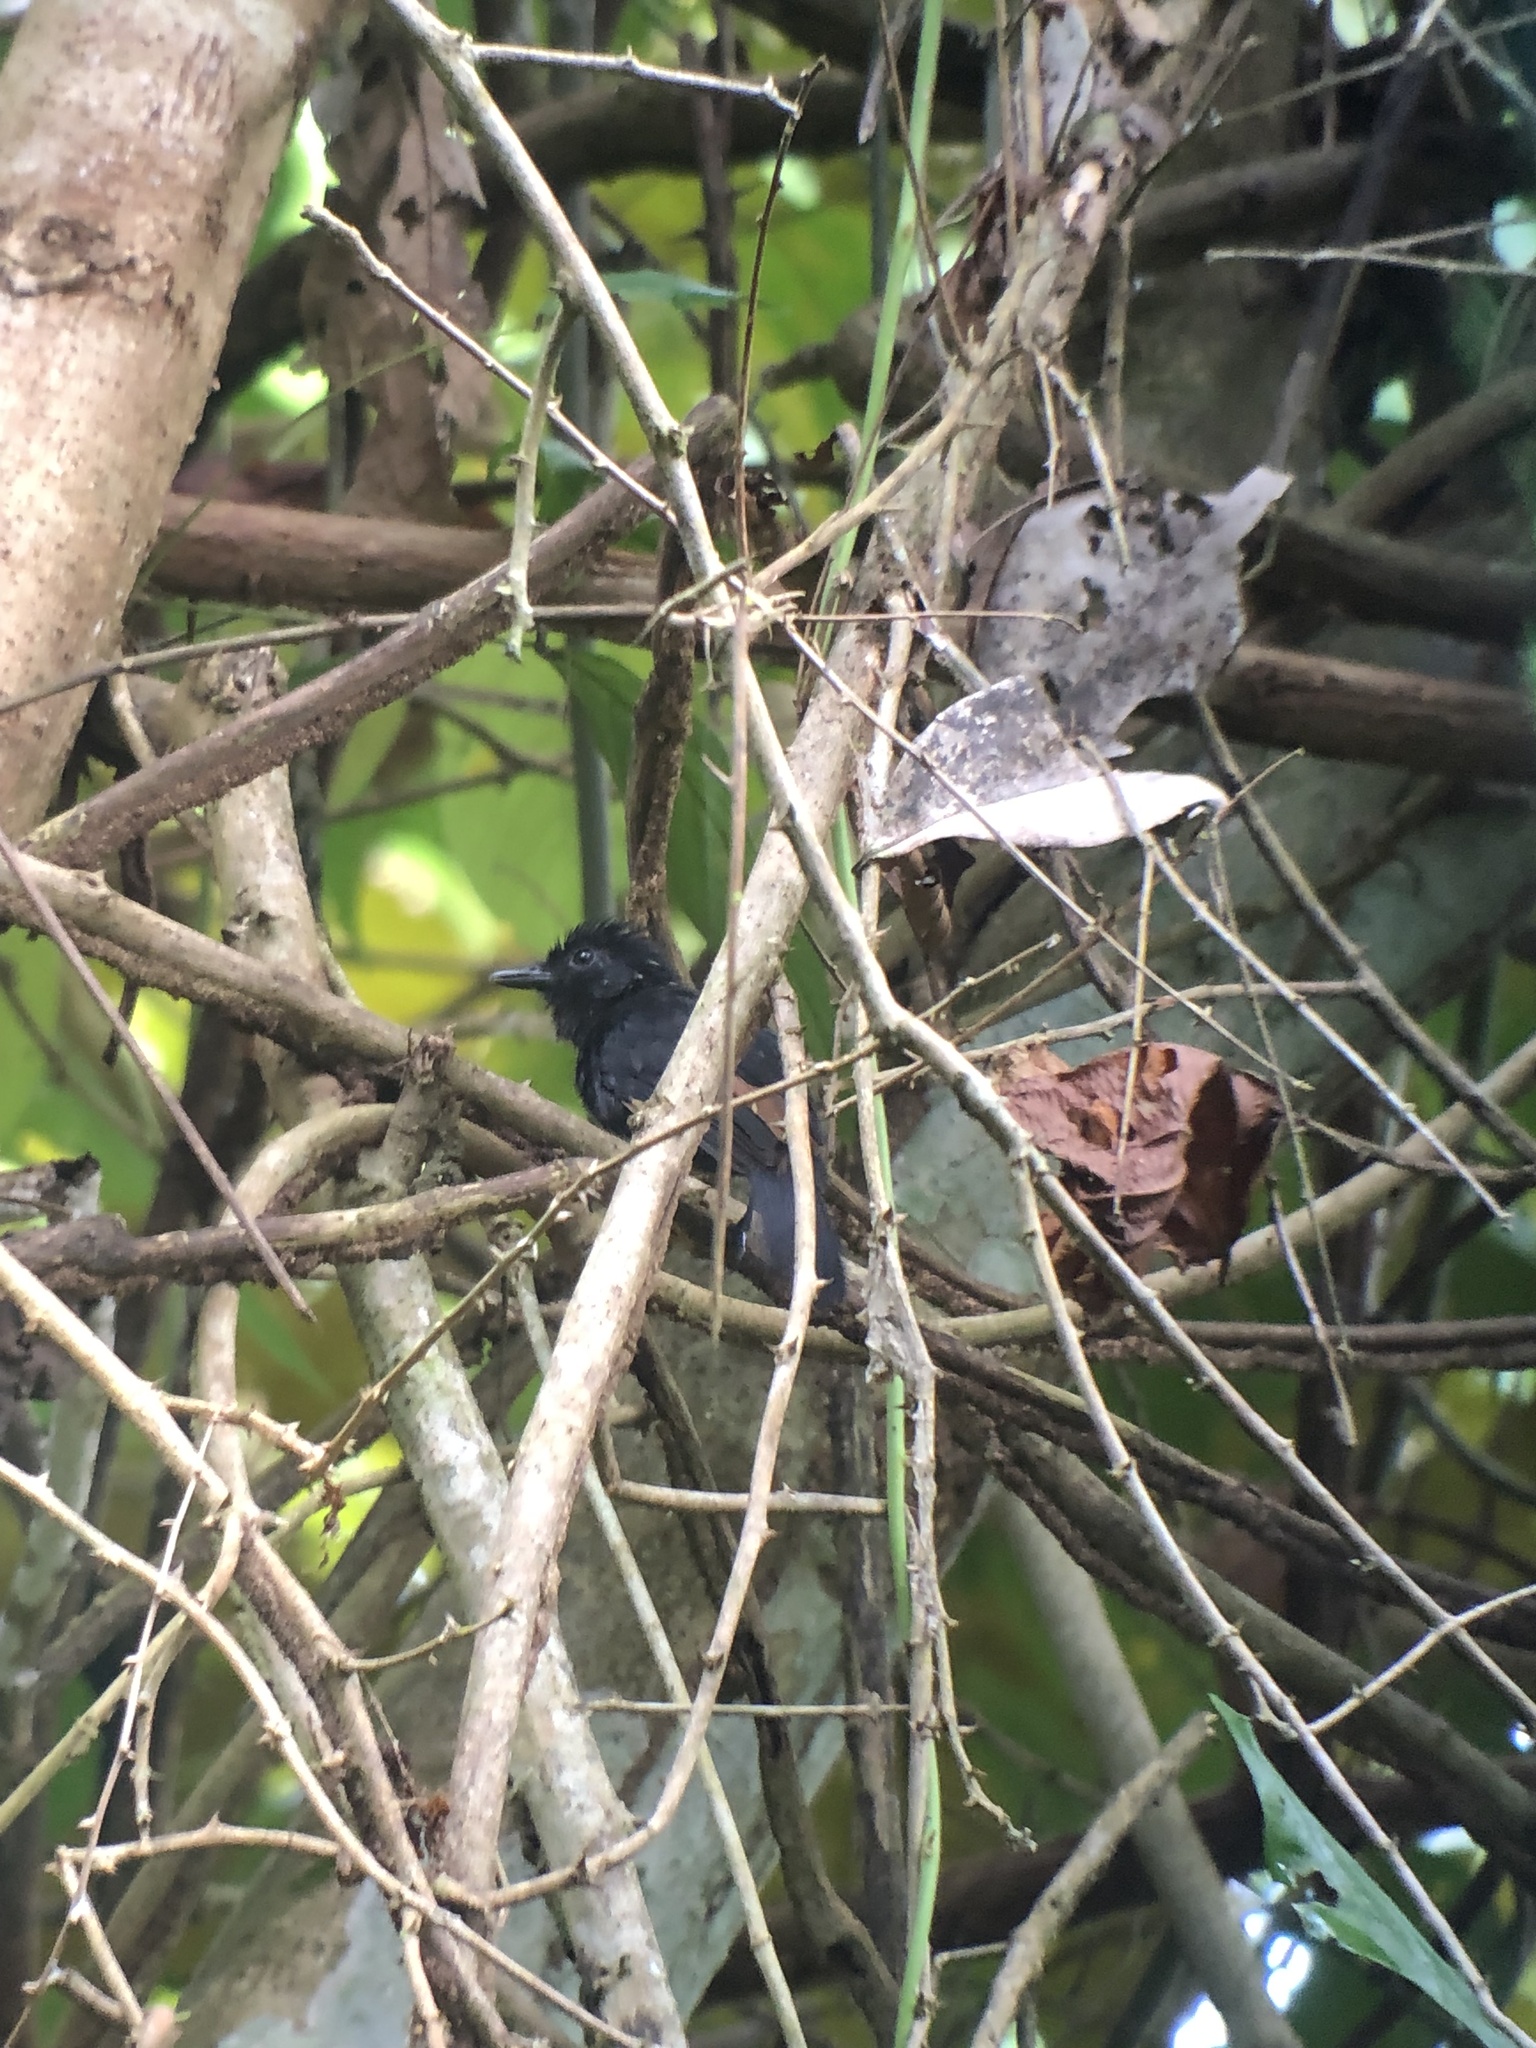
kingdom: Animalia
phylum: Chordata
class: Aves
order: Passeriformes
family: Thamnophilidae
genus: Thamnophilus
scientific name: Thamnophilus nigriceps
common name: Black antshrike
